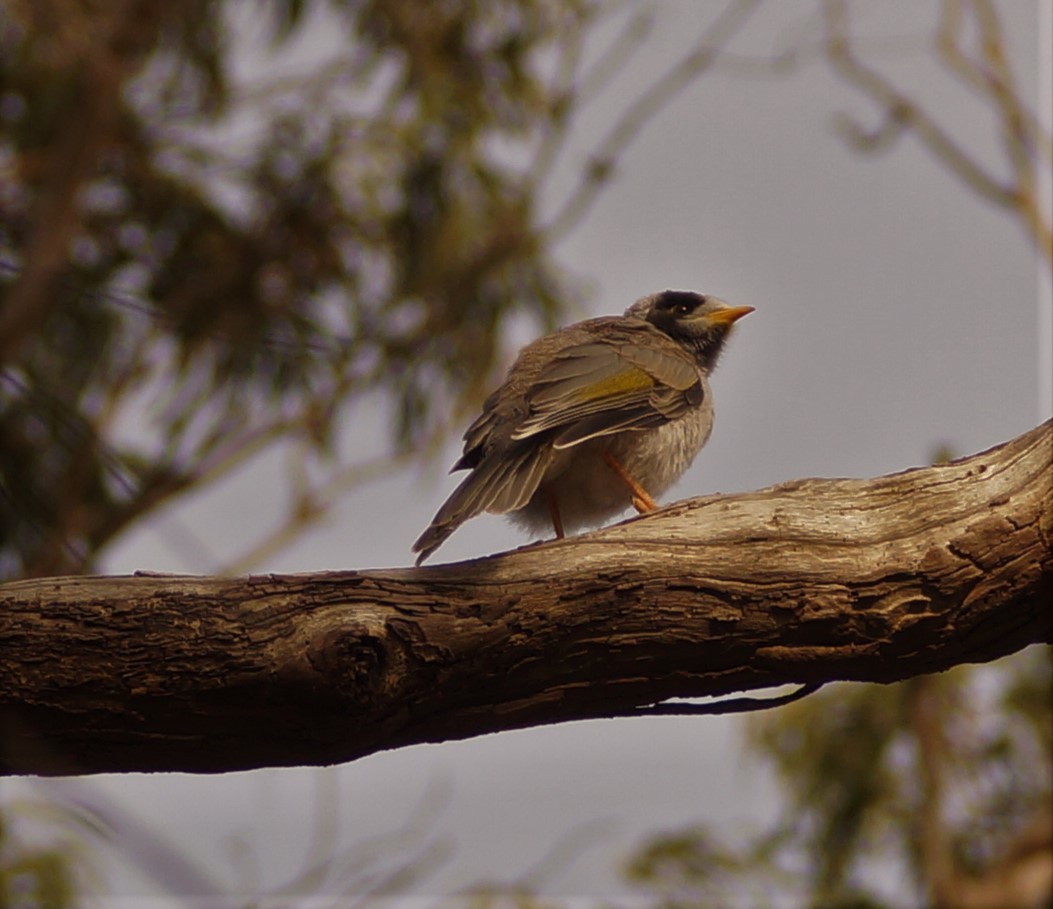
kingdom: Animalia
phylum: Chordata
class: Aves
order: Passeriformes
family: Meliphagidae
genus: Manorina
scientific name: Manorina melanocephala
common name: Noisy miner
